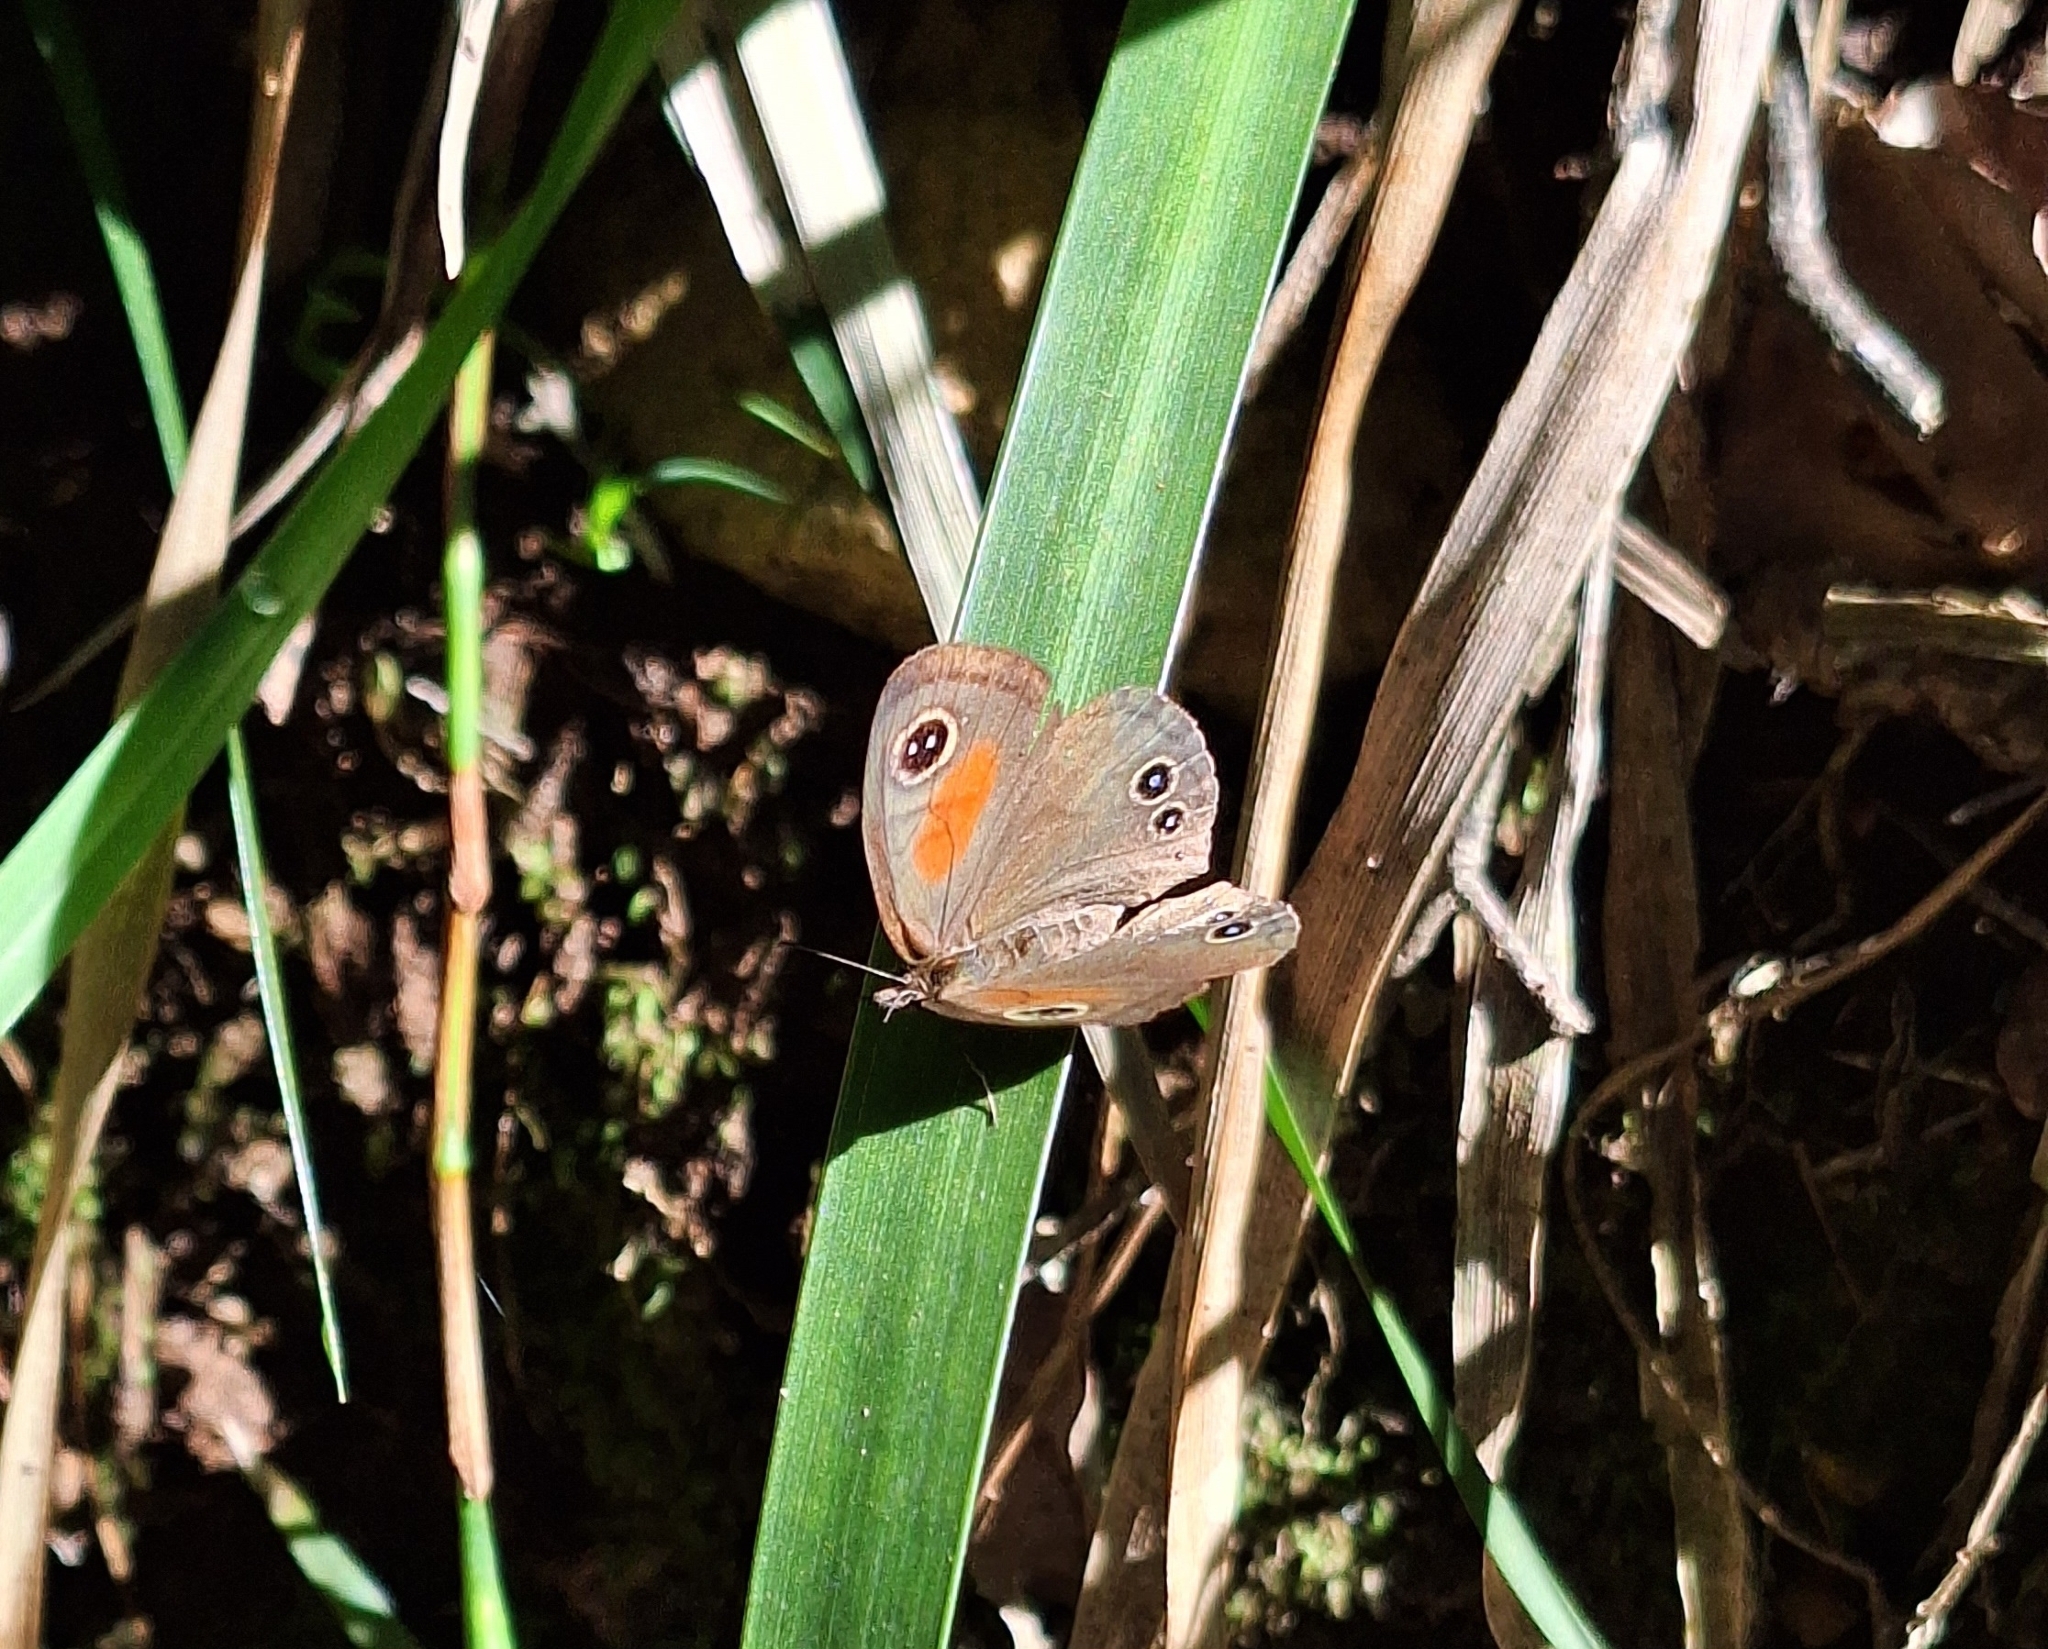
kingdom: Animalia
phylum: Arthropoda
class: Insecta
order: Lepidoptera
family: Nymphalidae
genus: Cassionympha
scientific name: Cassionympha cassius
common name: Rainforest brown
